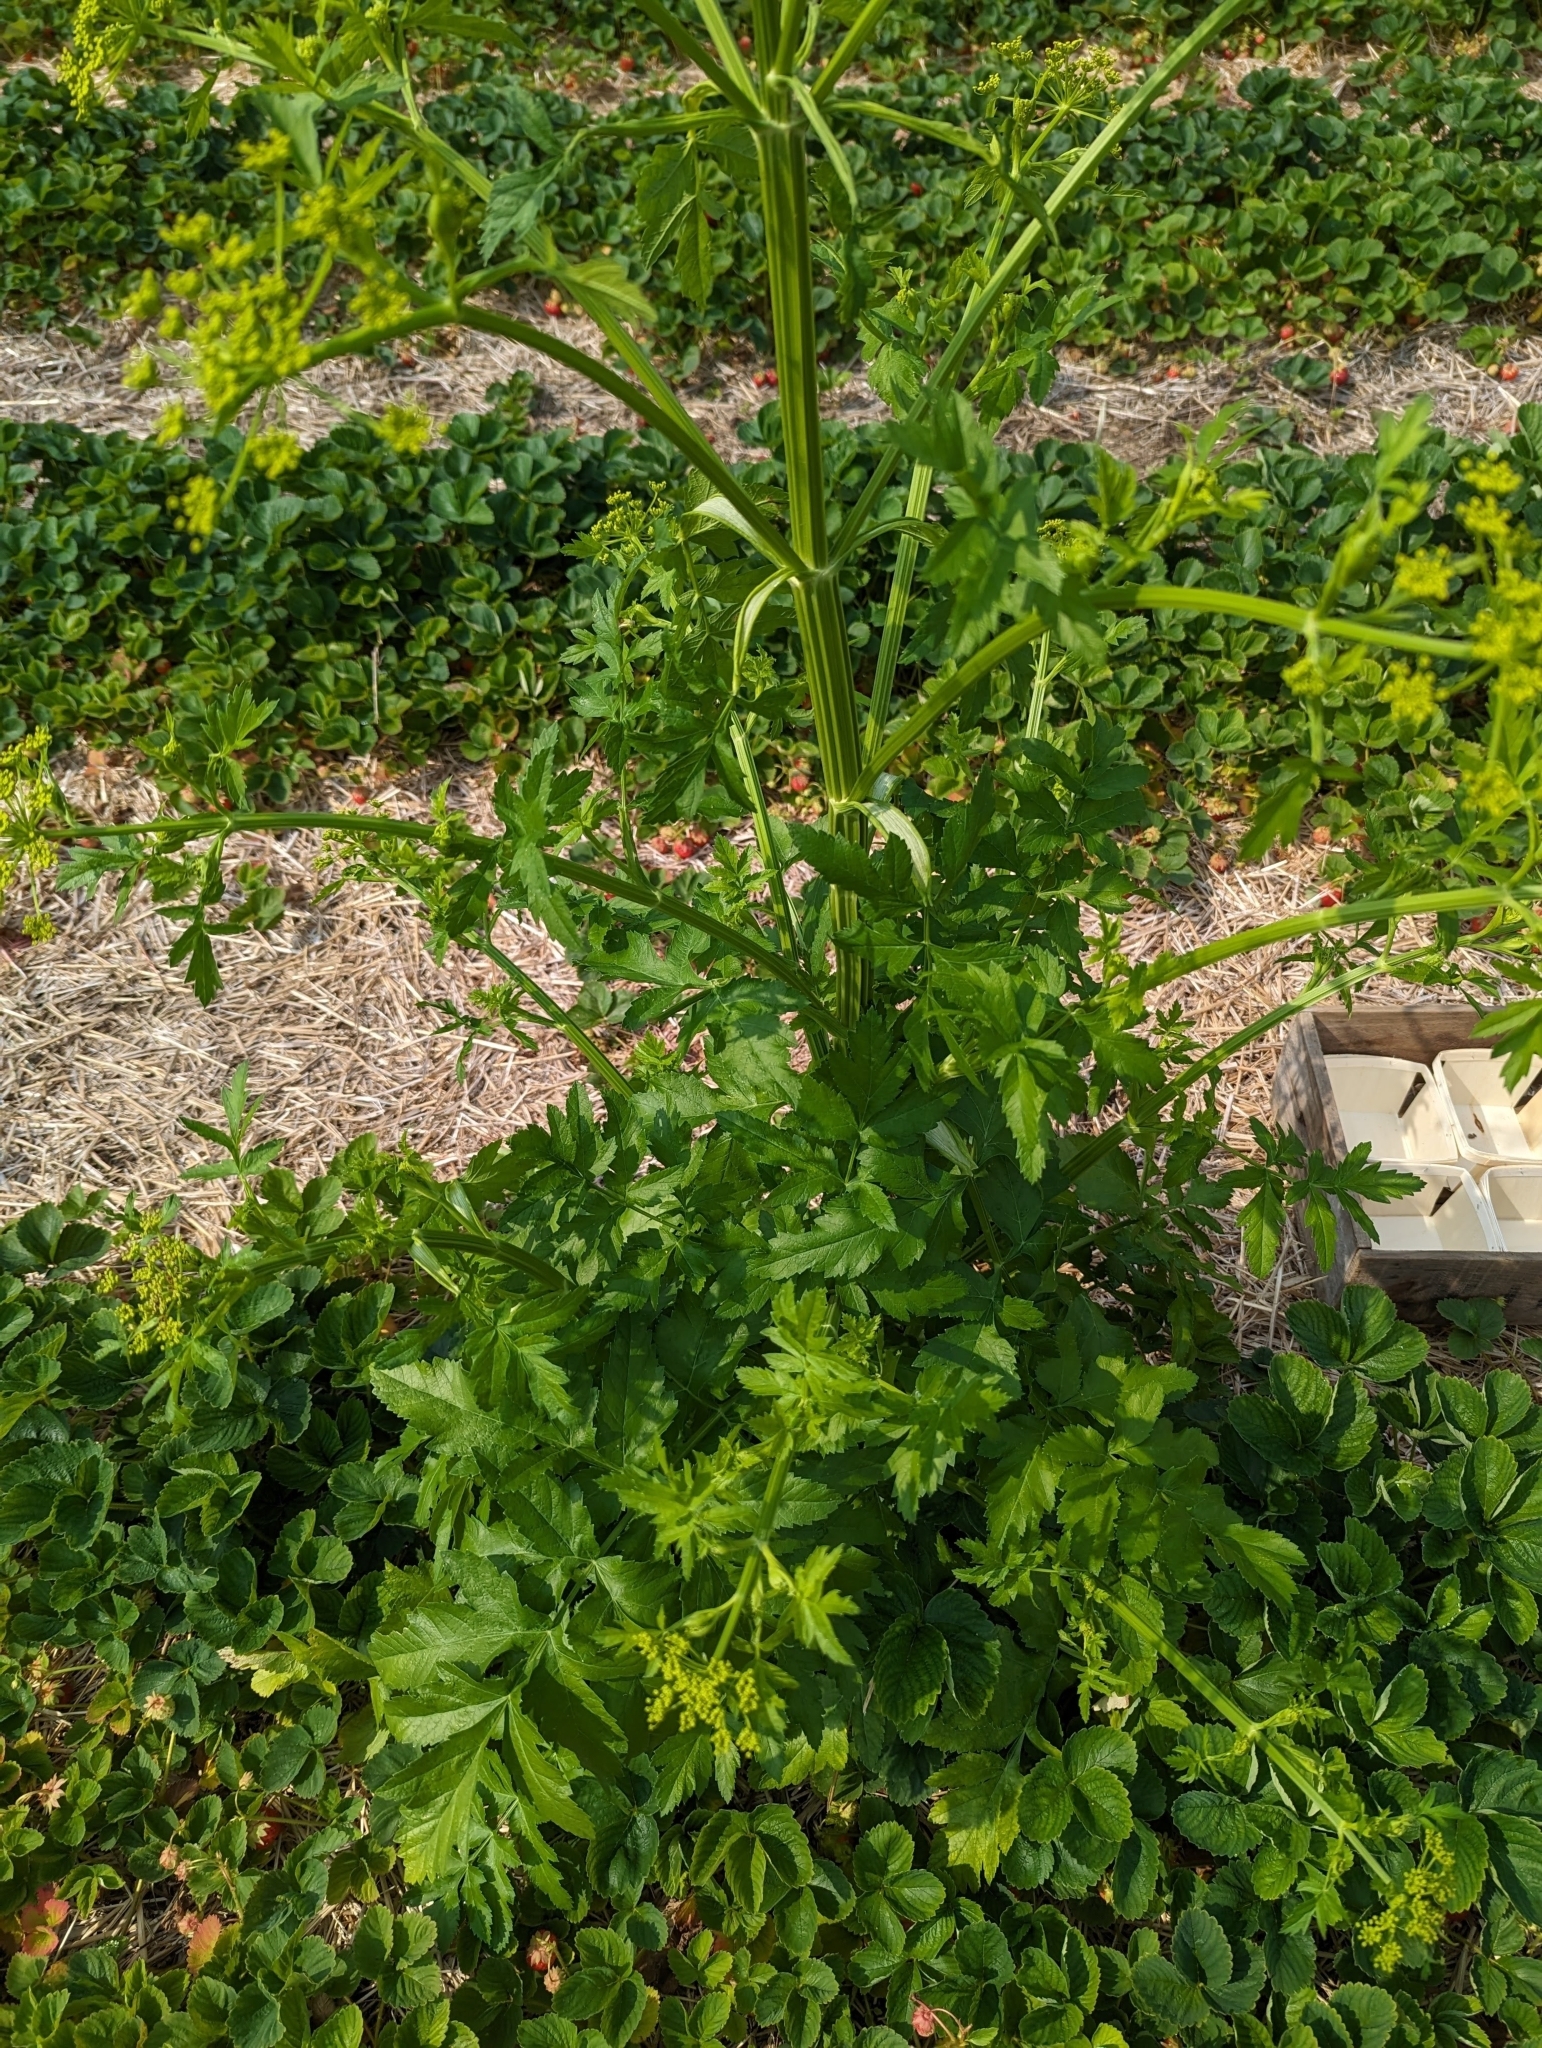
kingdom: Plantae
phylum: Tracheophyta
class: Magnoliopsida
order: Apiales
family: Apiaceae
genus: Pastinaca
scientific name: Pastinaca sativa
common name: Wild parsnip
